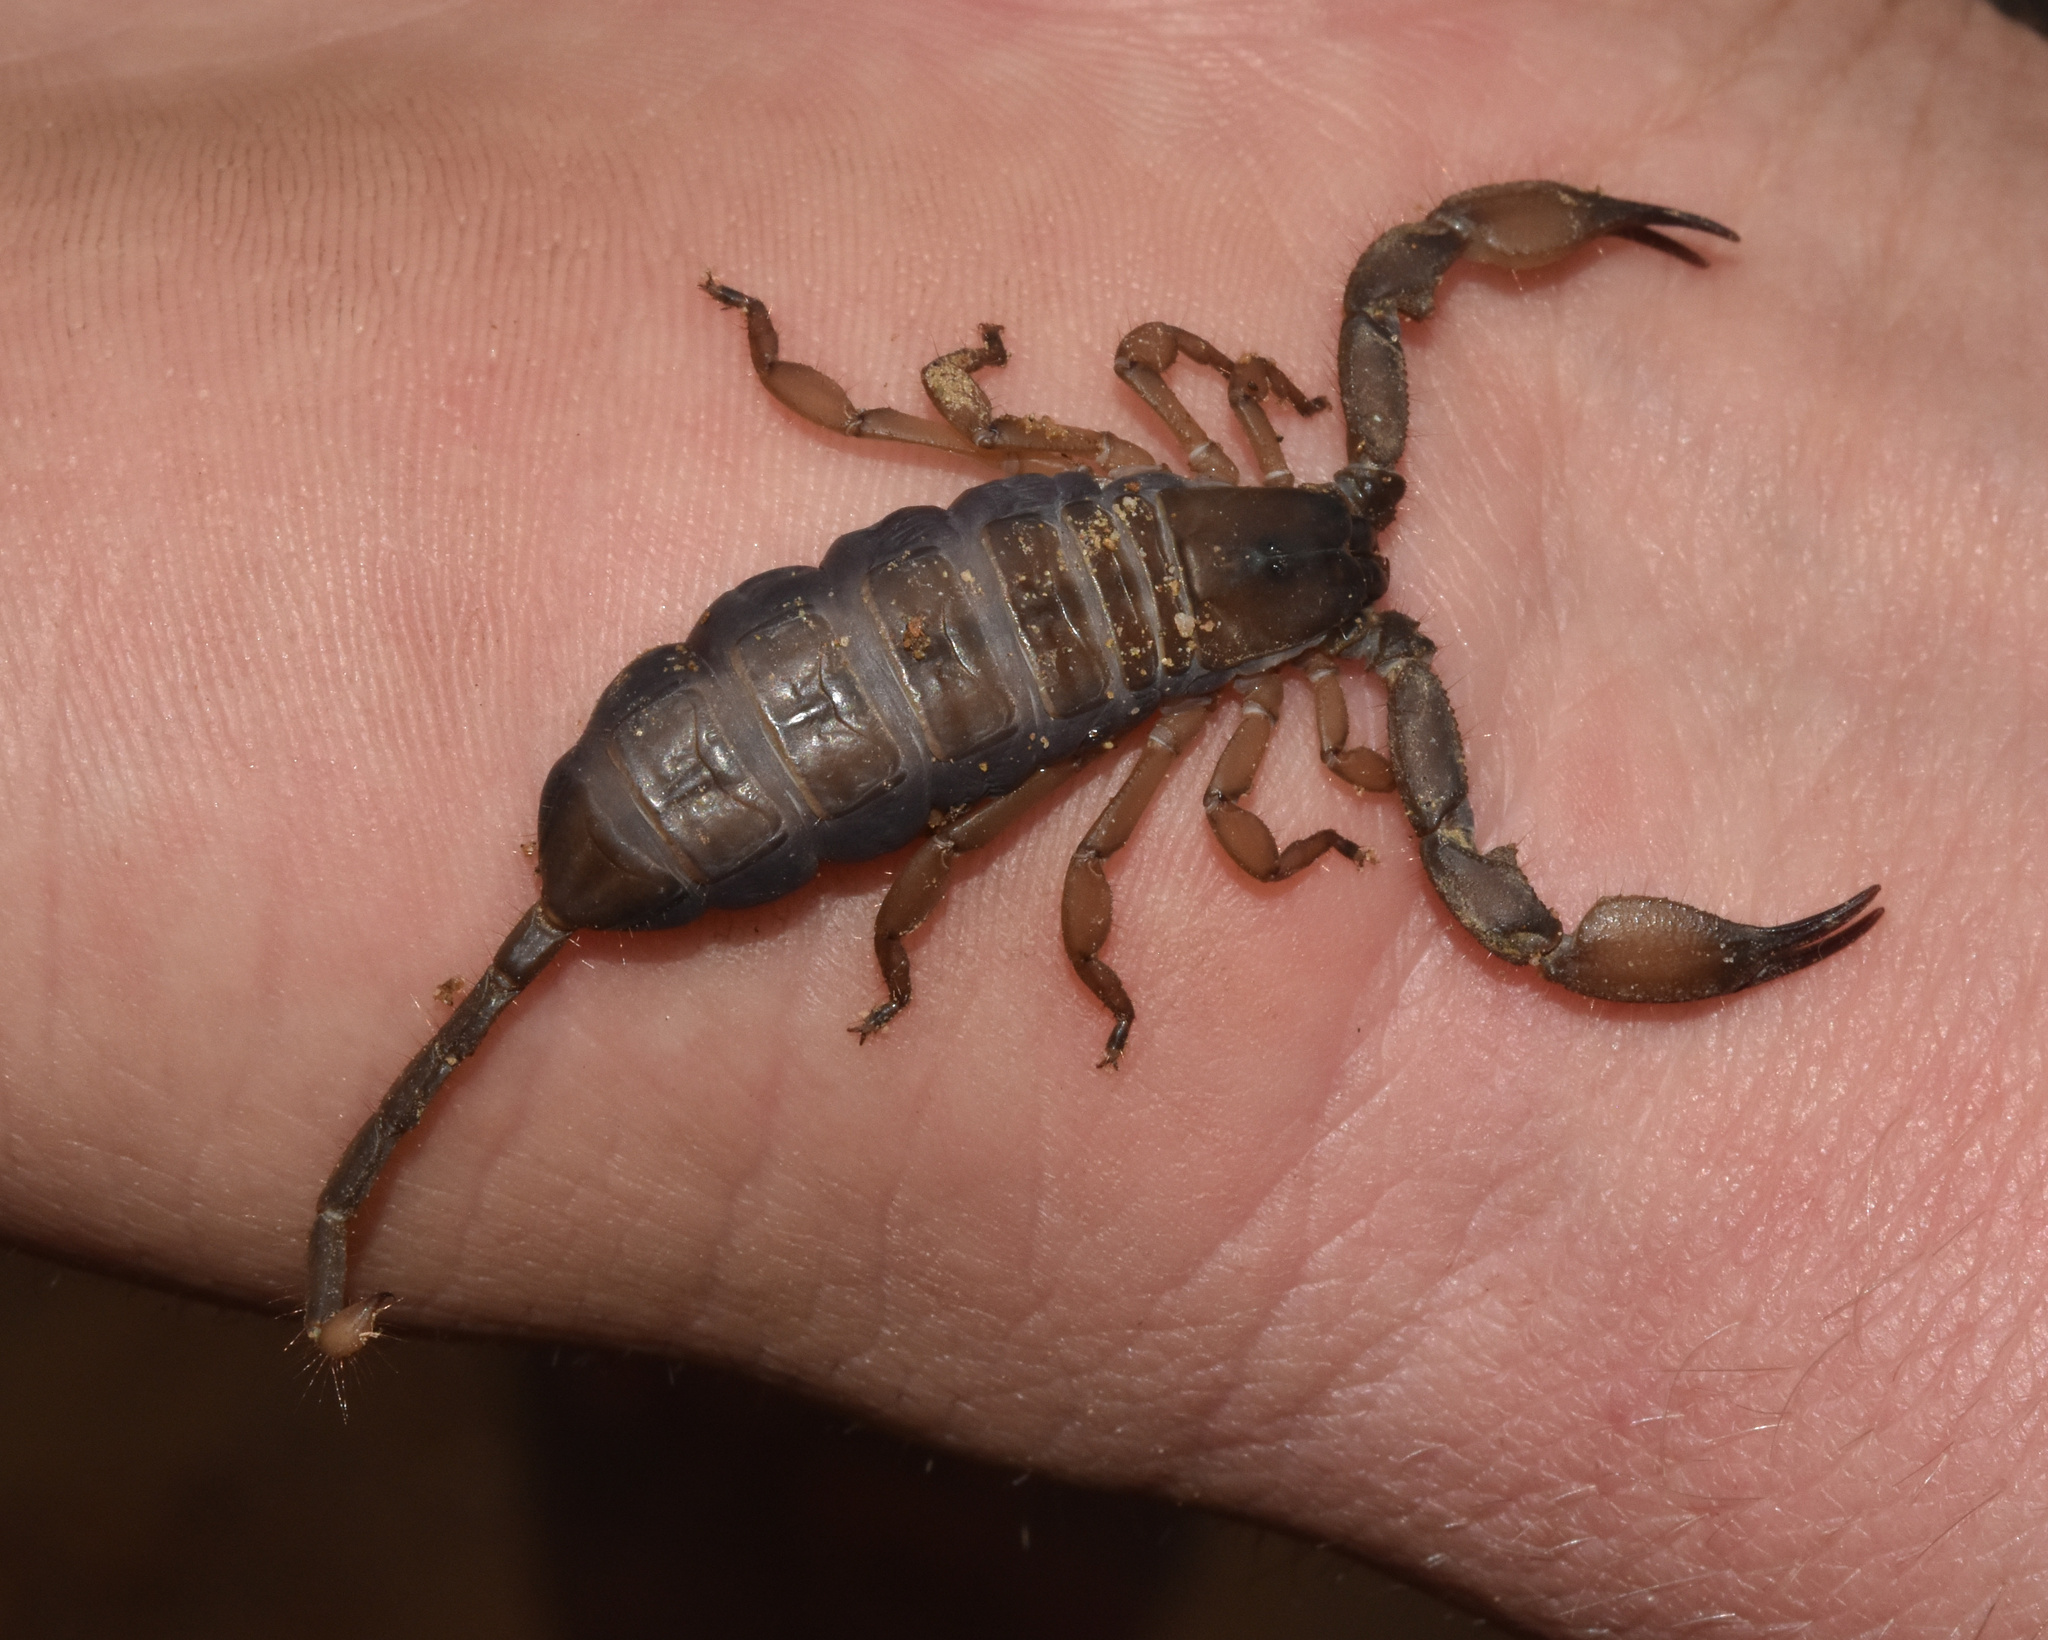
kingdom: Animalia
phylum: Arthropoda
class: Arachnida
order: Scorpiones
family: Hormuridae
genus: Hadogenes
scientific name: Hadogenes trichiurus
